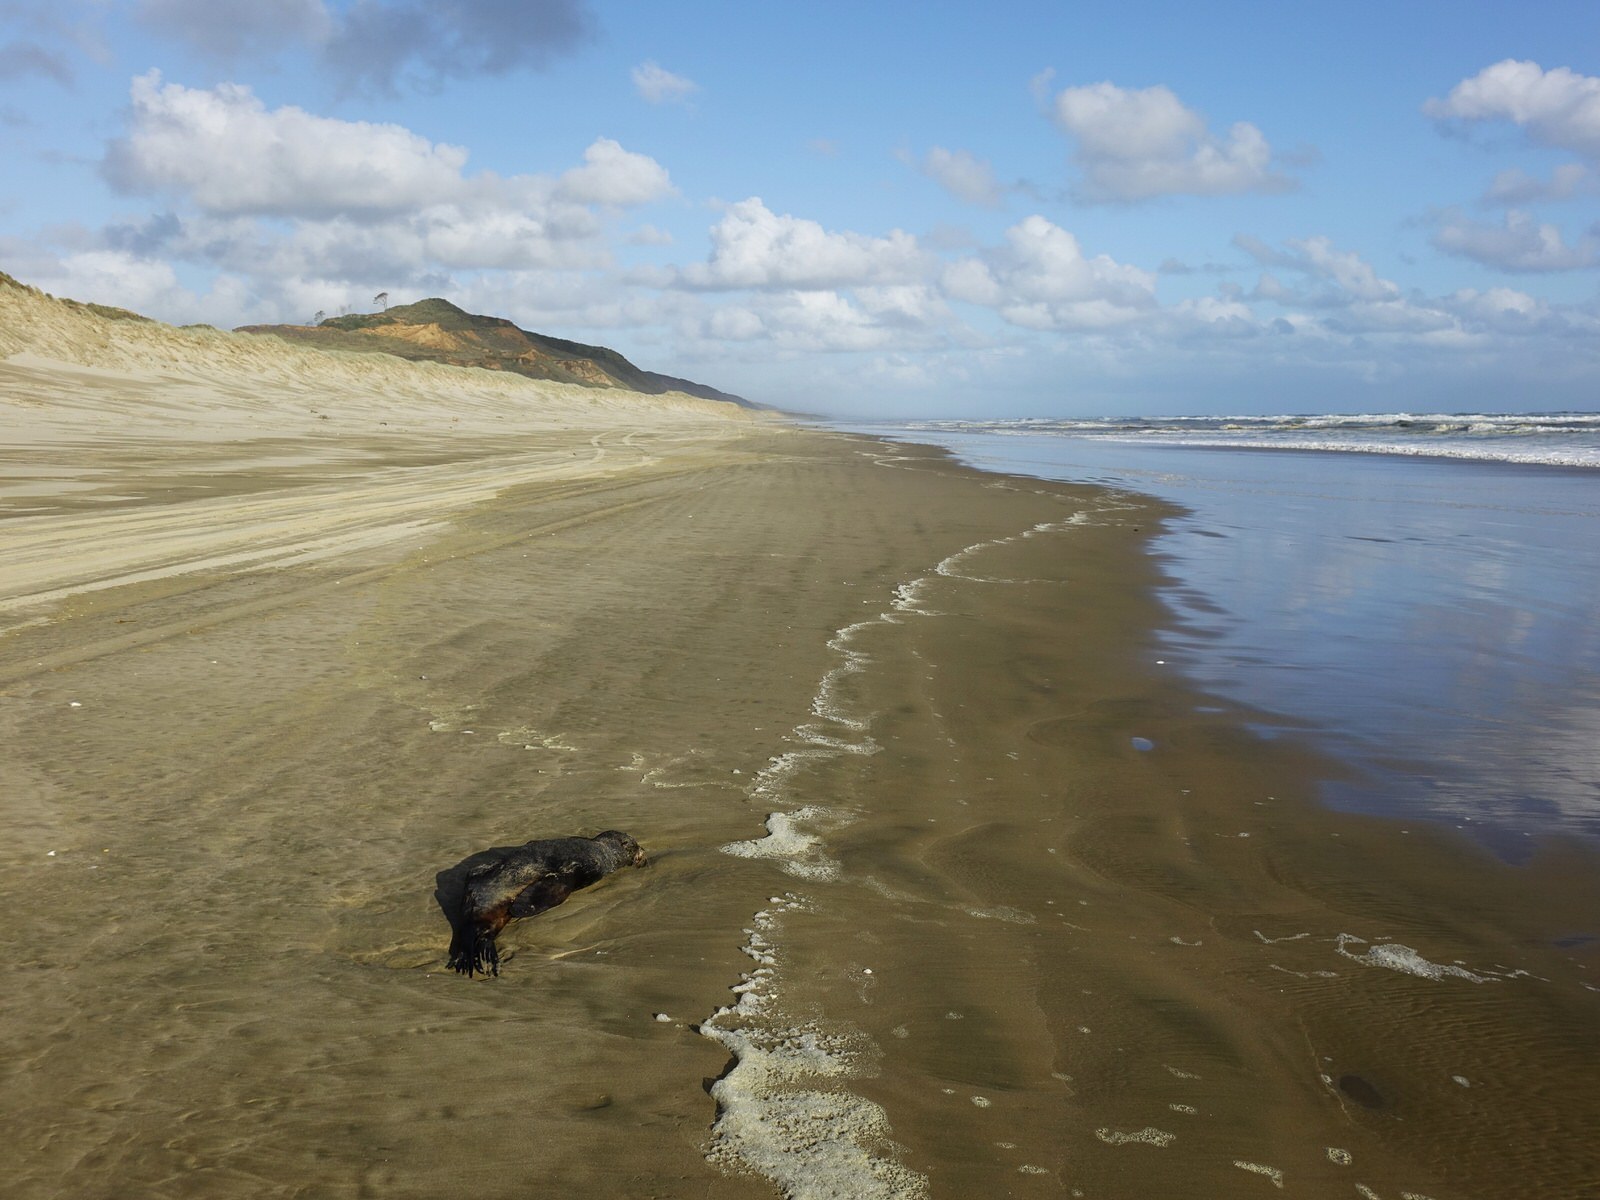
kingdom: Animalia
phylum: Chordata
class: Mammalia
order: Carnivora
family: Otariidae
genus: Arctocephalus
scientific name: Arctocephalus forsteri
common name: New zealand fur seal
